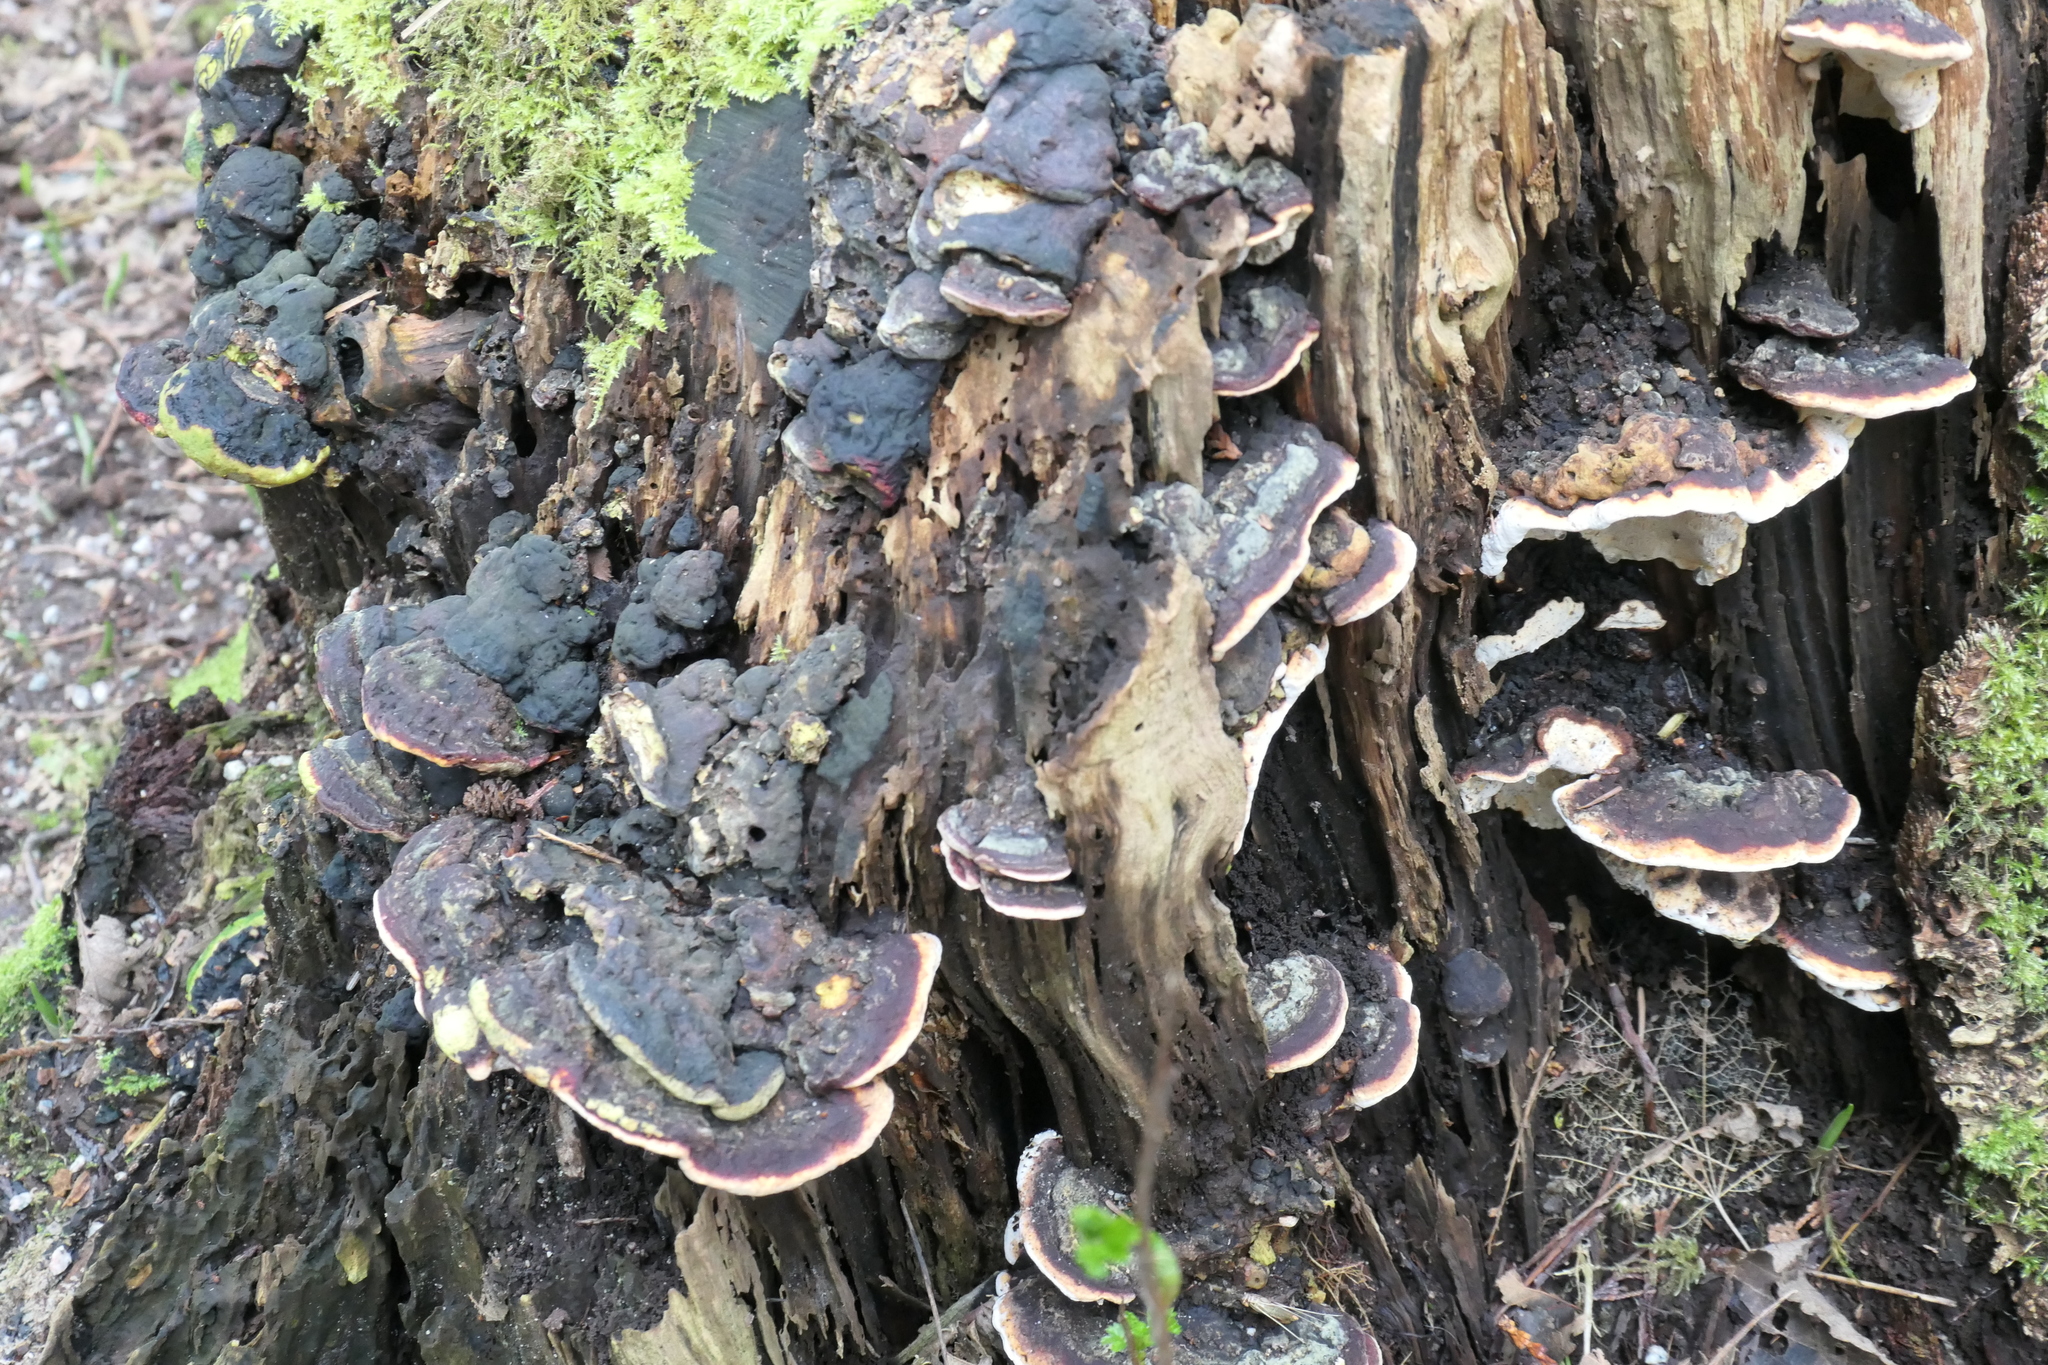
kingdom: Fungi
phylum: Basidiomycota
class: Agaricomycetes
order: Polyporales
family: Fomitopsidaceae
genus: Fomitopsis
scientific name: Fomitopsis mounceae
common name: Northern red belt
